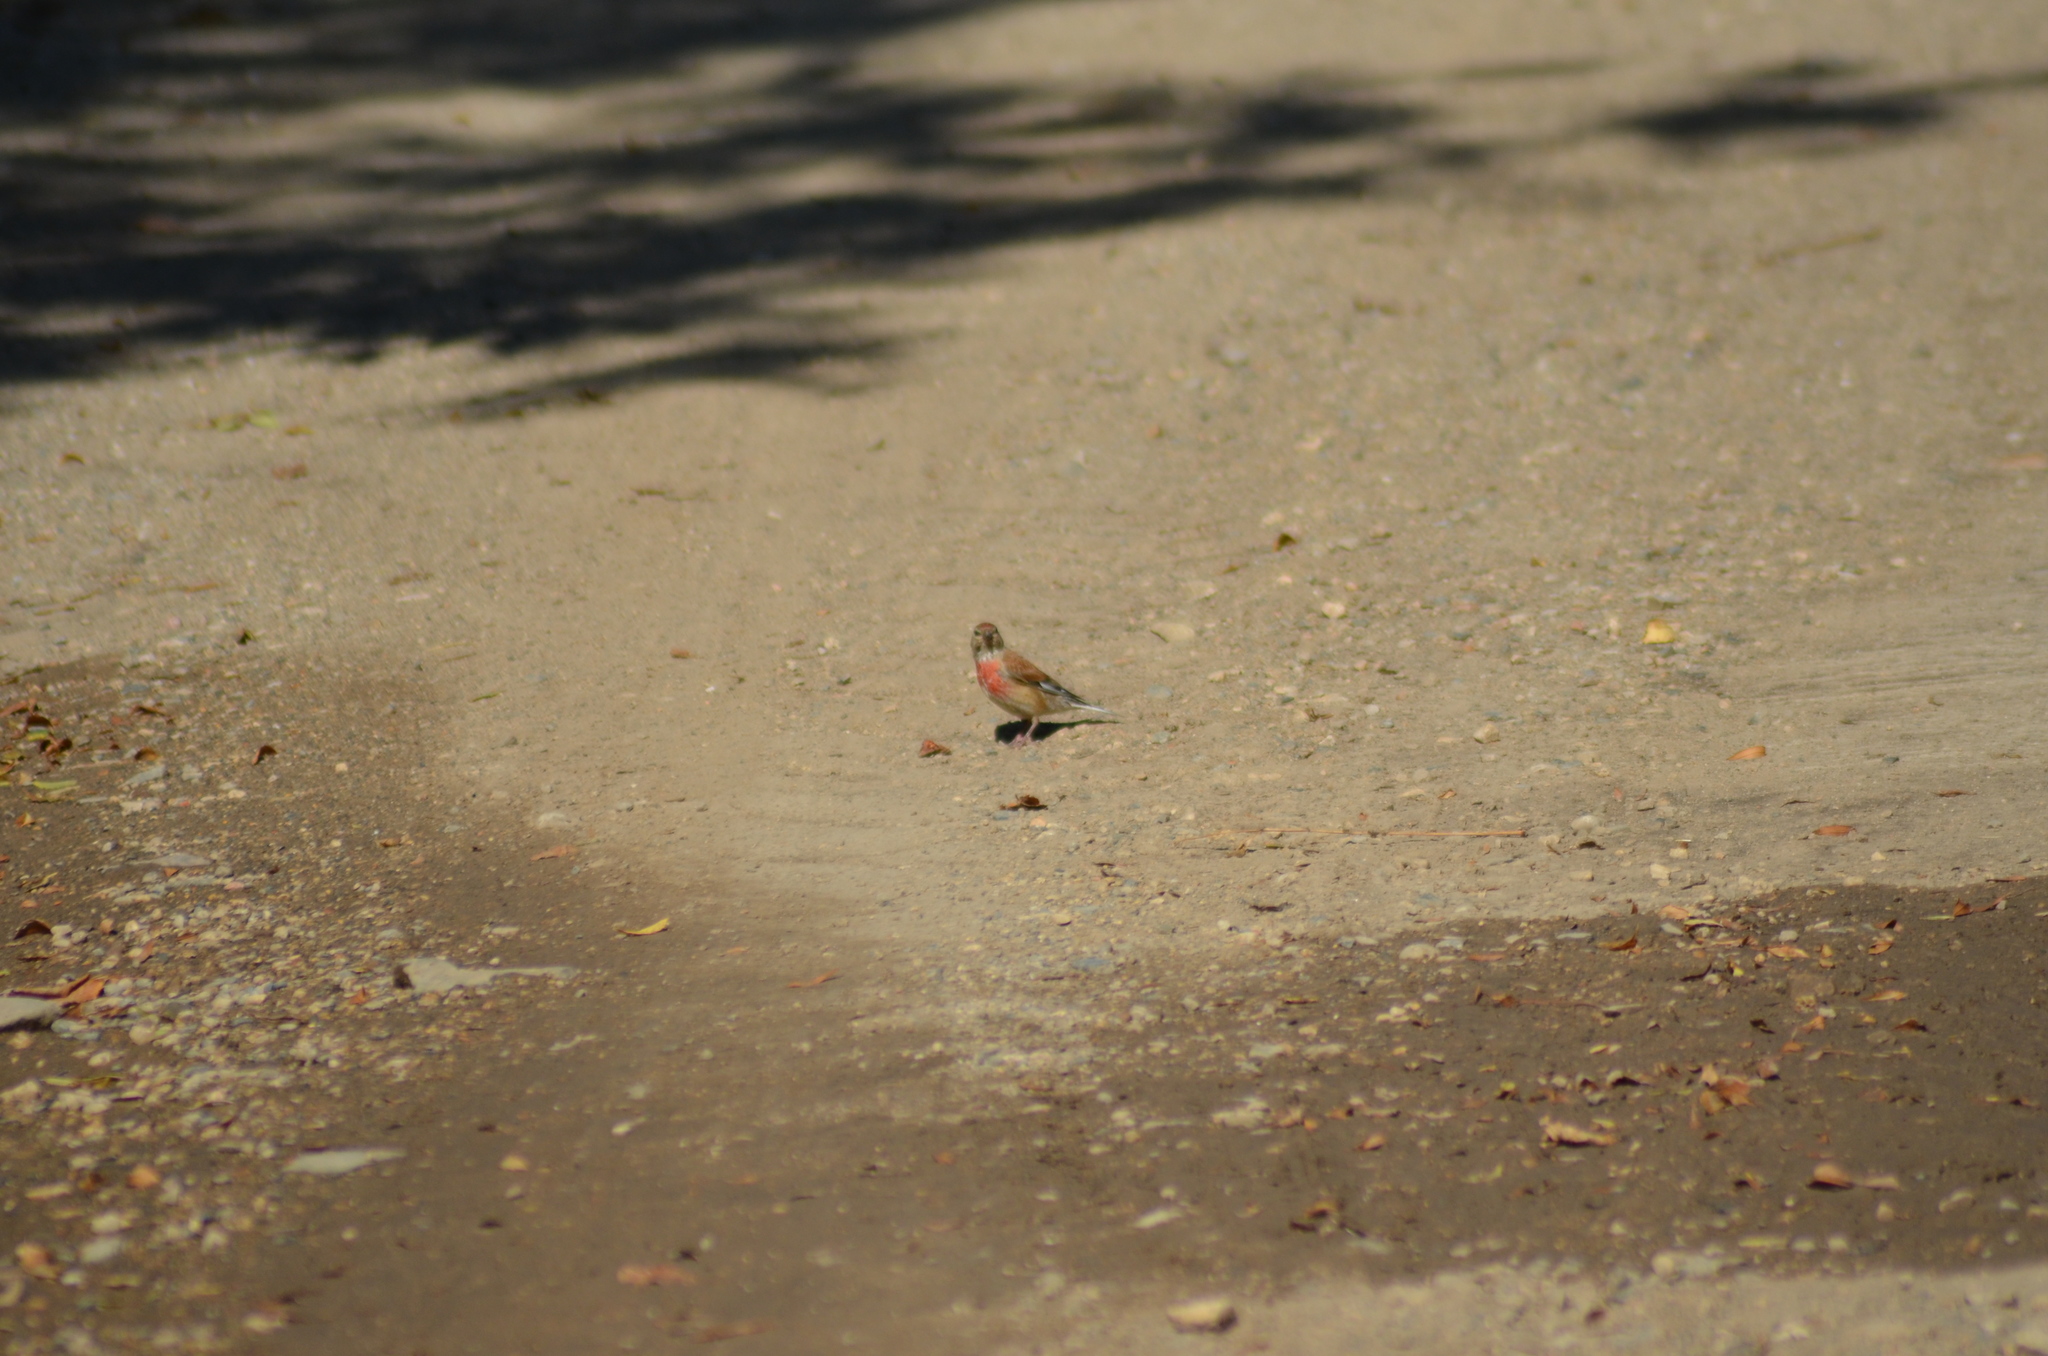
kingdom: Animalia
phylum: Chordata
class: Aves
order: Passeriformes
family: Fringillidae
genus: Linaria
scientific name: Linaria cannabina
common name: Common linnet
